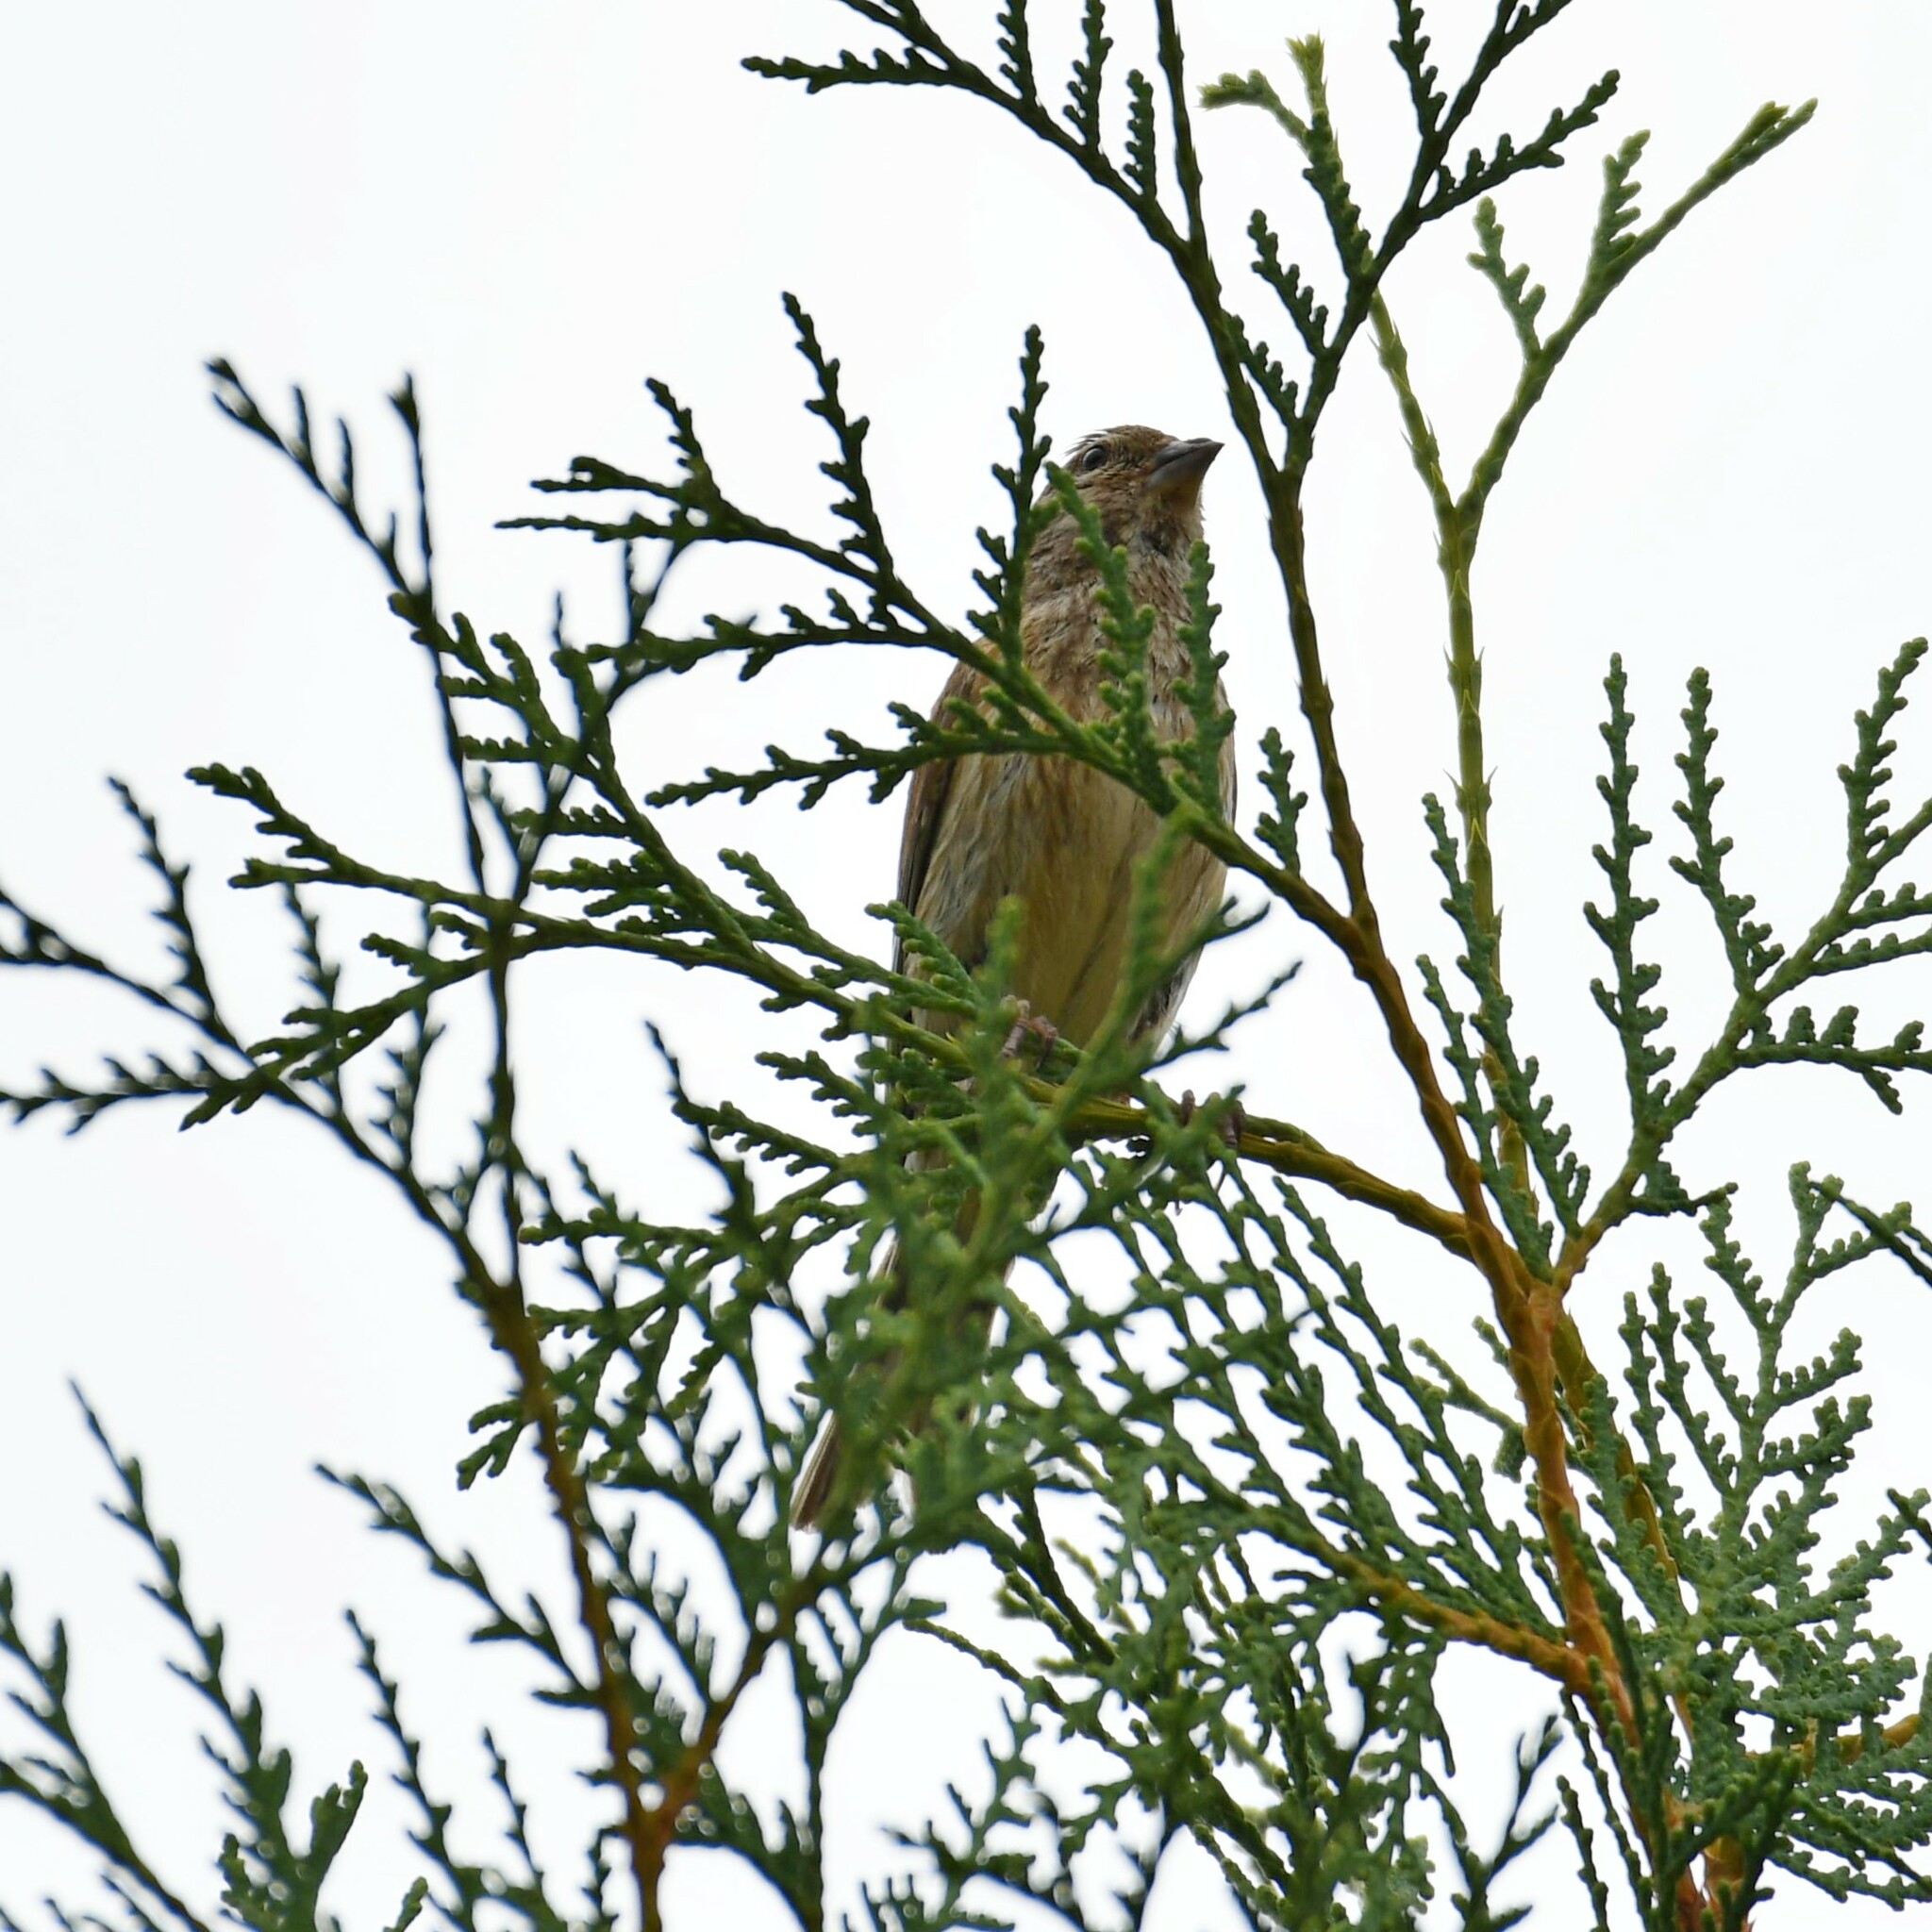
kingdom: Animalia
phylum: Chordata
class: Aves
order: Passeriformes
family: Fringillidae
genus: Linaria
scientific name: Linaria cannabina
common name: Common linnet
